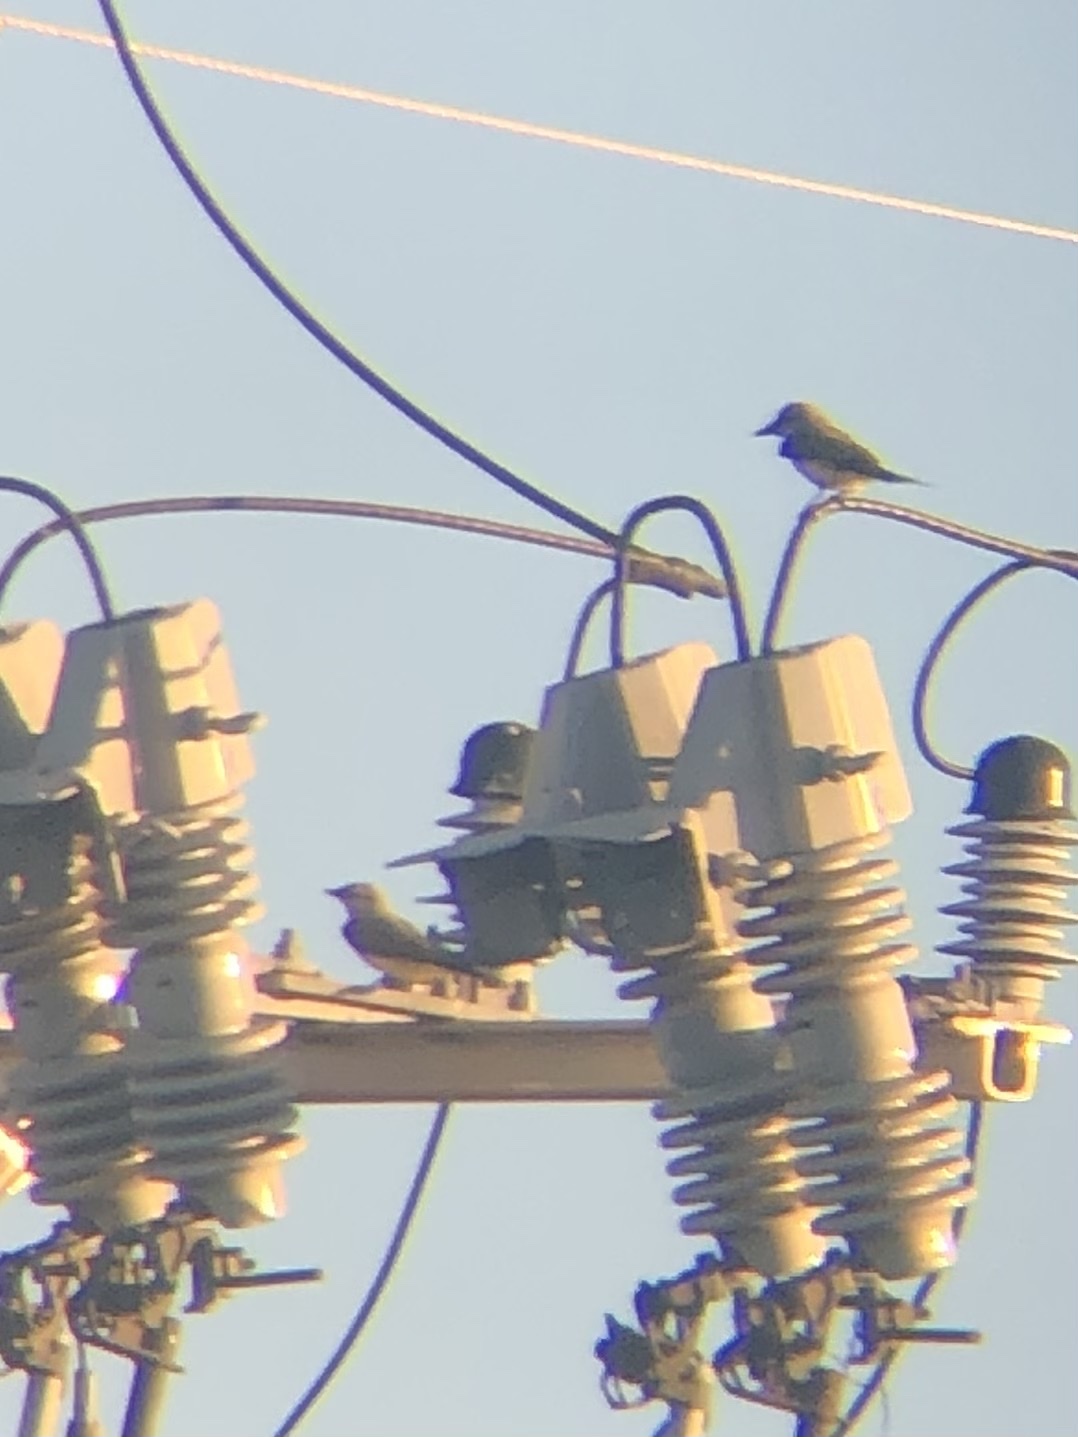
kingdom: Animalia
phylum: Chordata
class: Aves
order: Passeriformes
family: Tyrannidae
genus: Tyrannus
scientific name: Tyrannus
